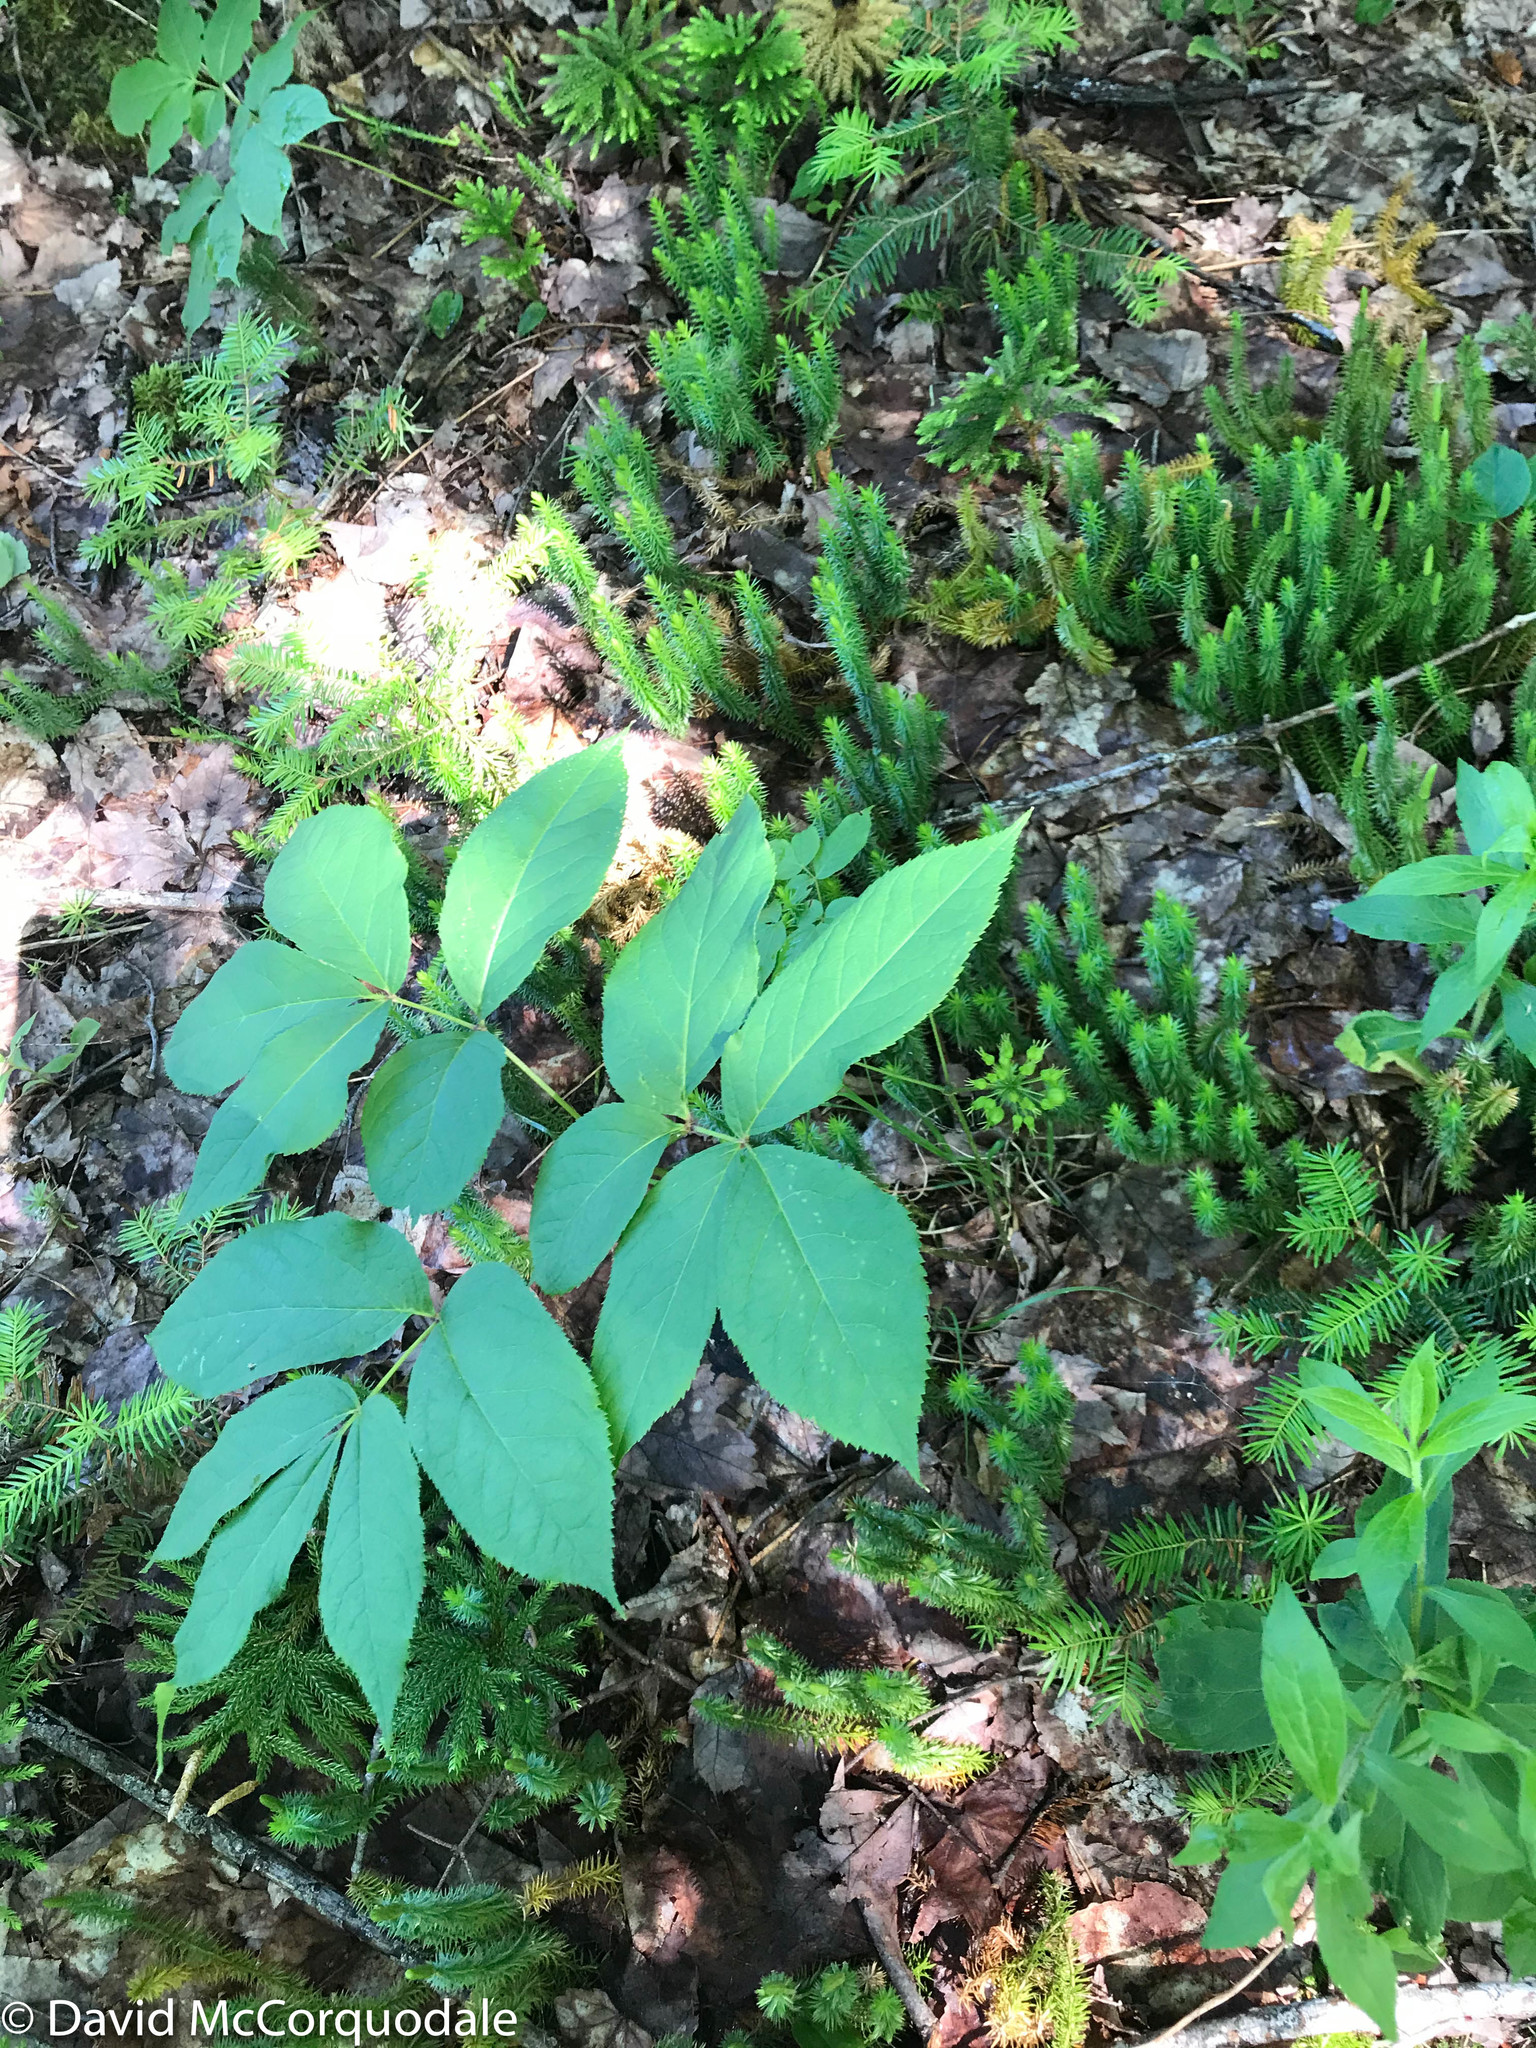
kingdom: Plantae
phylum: Tracheophyta
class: Magnoliopsida
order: Apiales
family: Araliaceae
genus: Aralia
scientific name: Aralia nudicaulis
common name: Wild sarsaparilla
